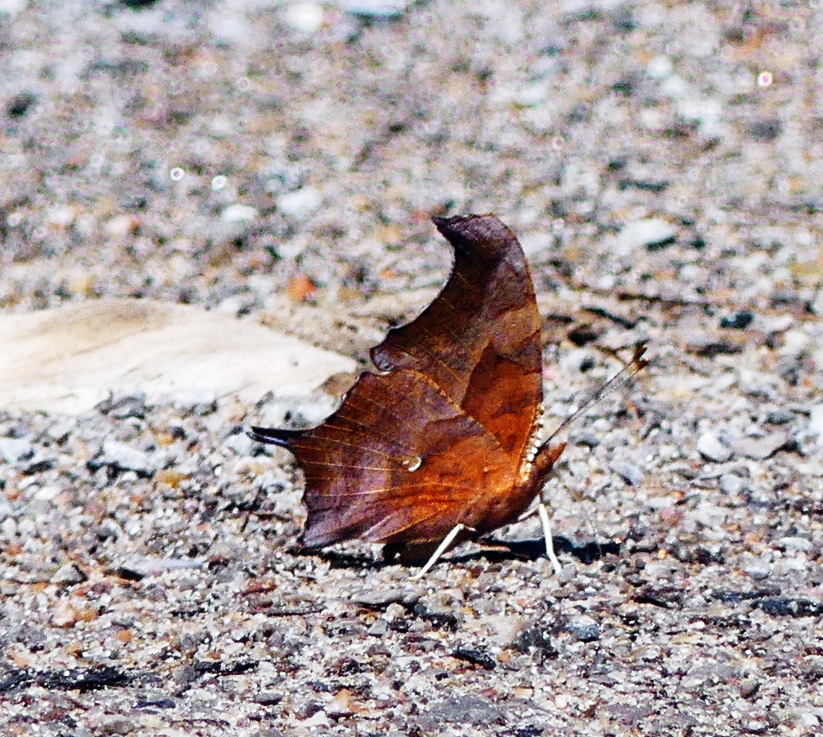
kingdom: Animalia
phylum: Arthropoda
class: Insecta
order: Lepidoptera
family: Nymphalidae
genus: Polygonia
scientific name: Polygonia interrogationis
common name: Question mark
